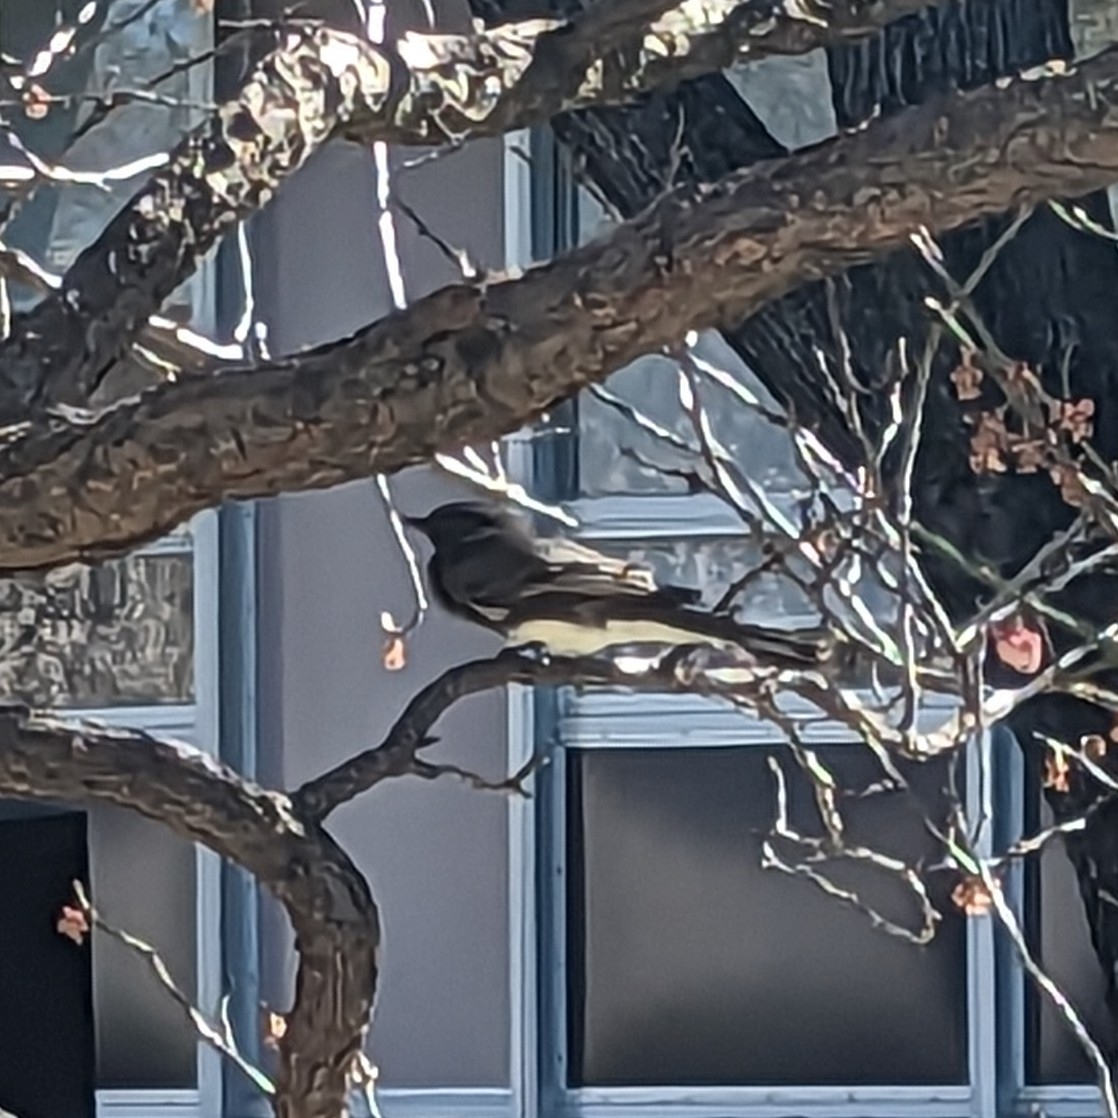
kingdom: Animalia
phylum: Chordata
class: Aves
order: Passeriformes
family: Tyrannidae
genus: Sayornis
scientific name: Sayornis nigricans
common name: Black phoebe
